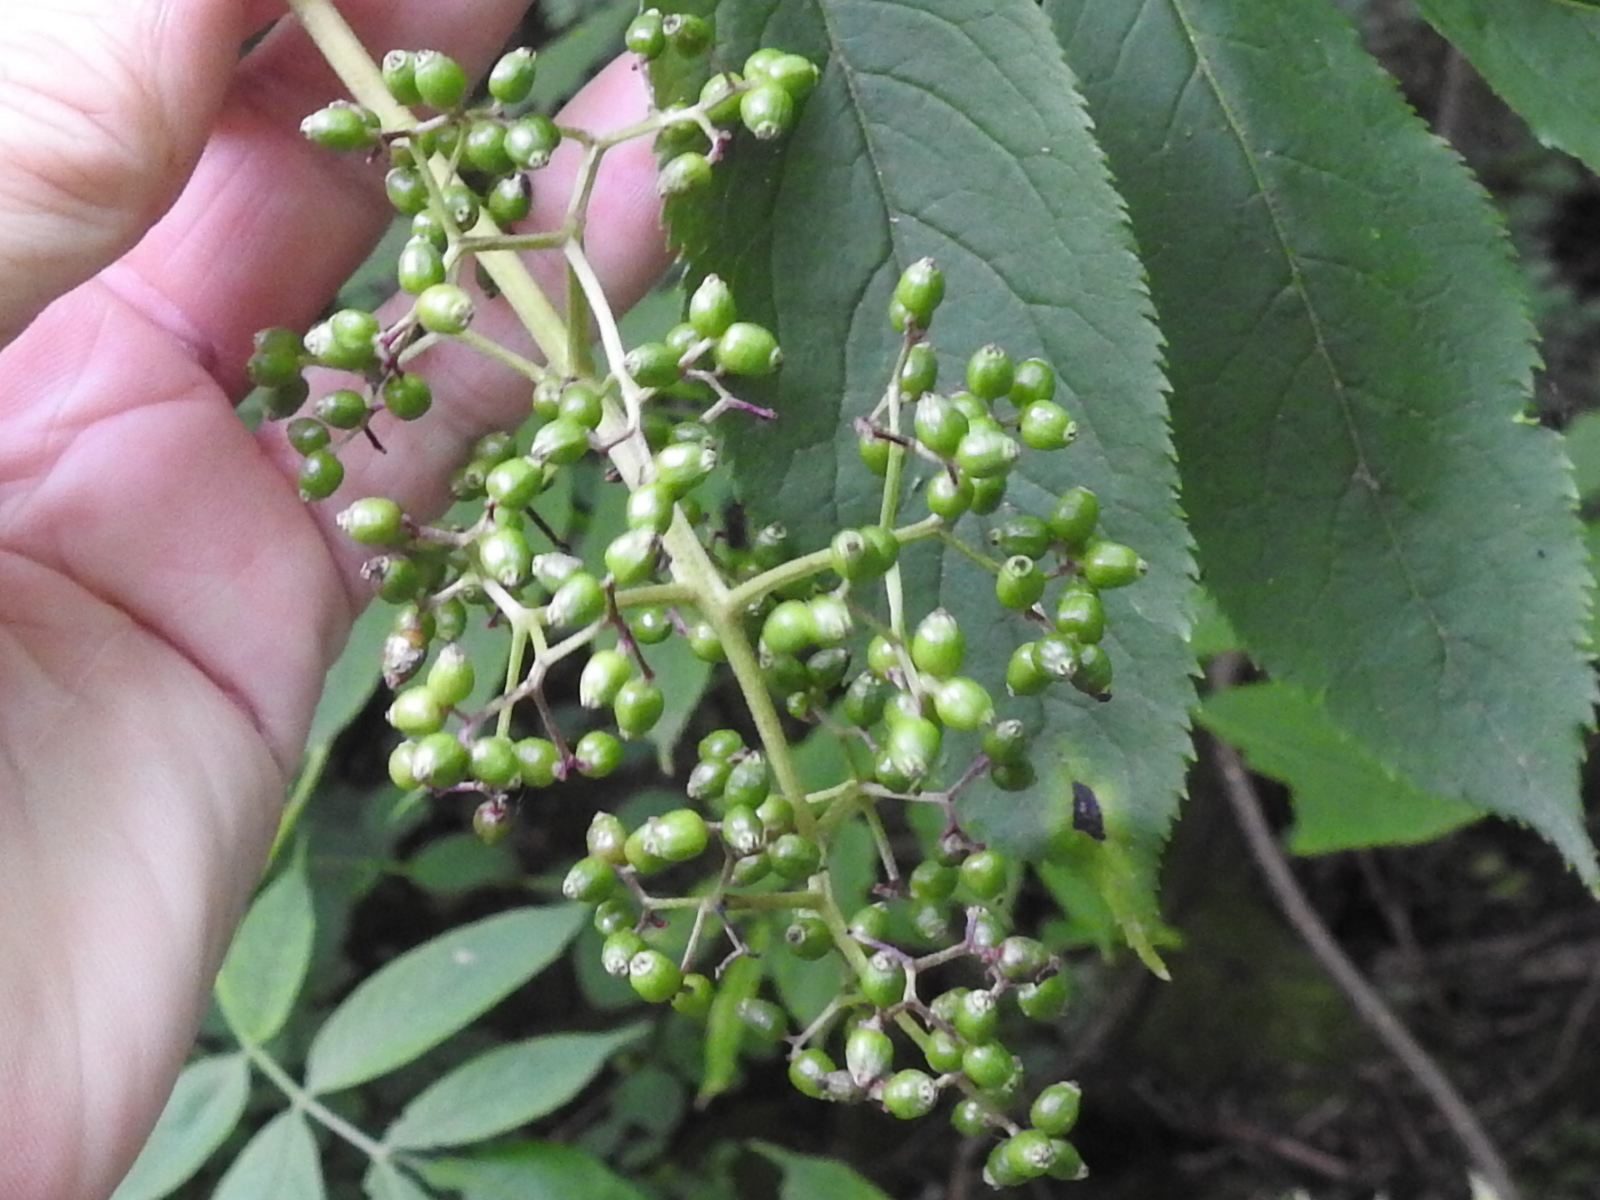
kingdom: Plantae
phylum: Tracheophyta
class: Magnoliopsida
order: Dipsacales
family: Viburnaceae
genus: Sambucus
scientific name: Sambucus racemosa
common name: Red-berried elder
